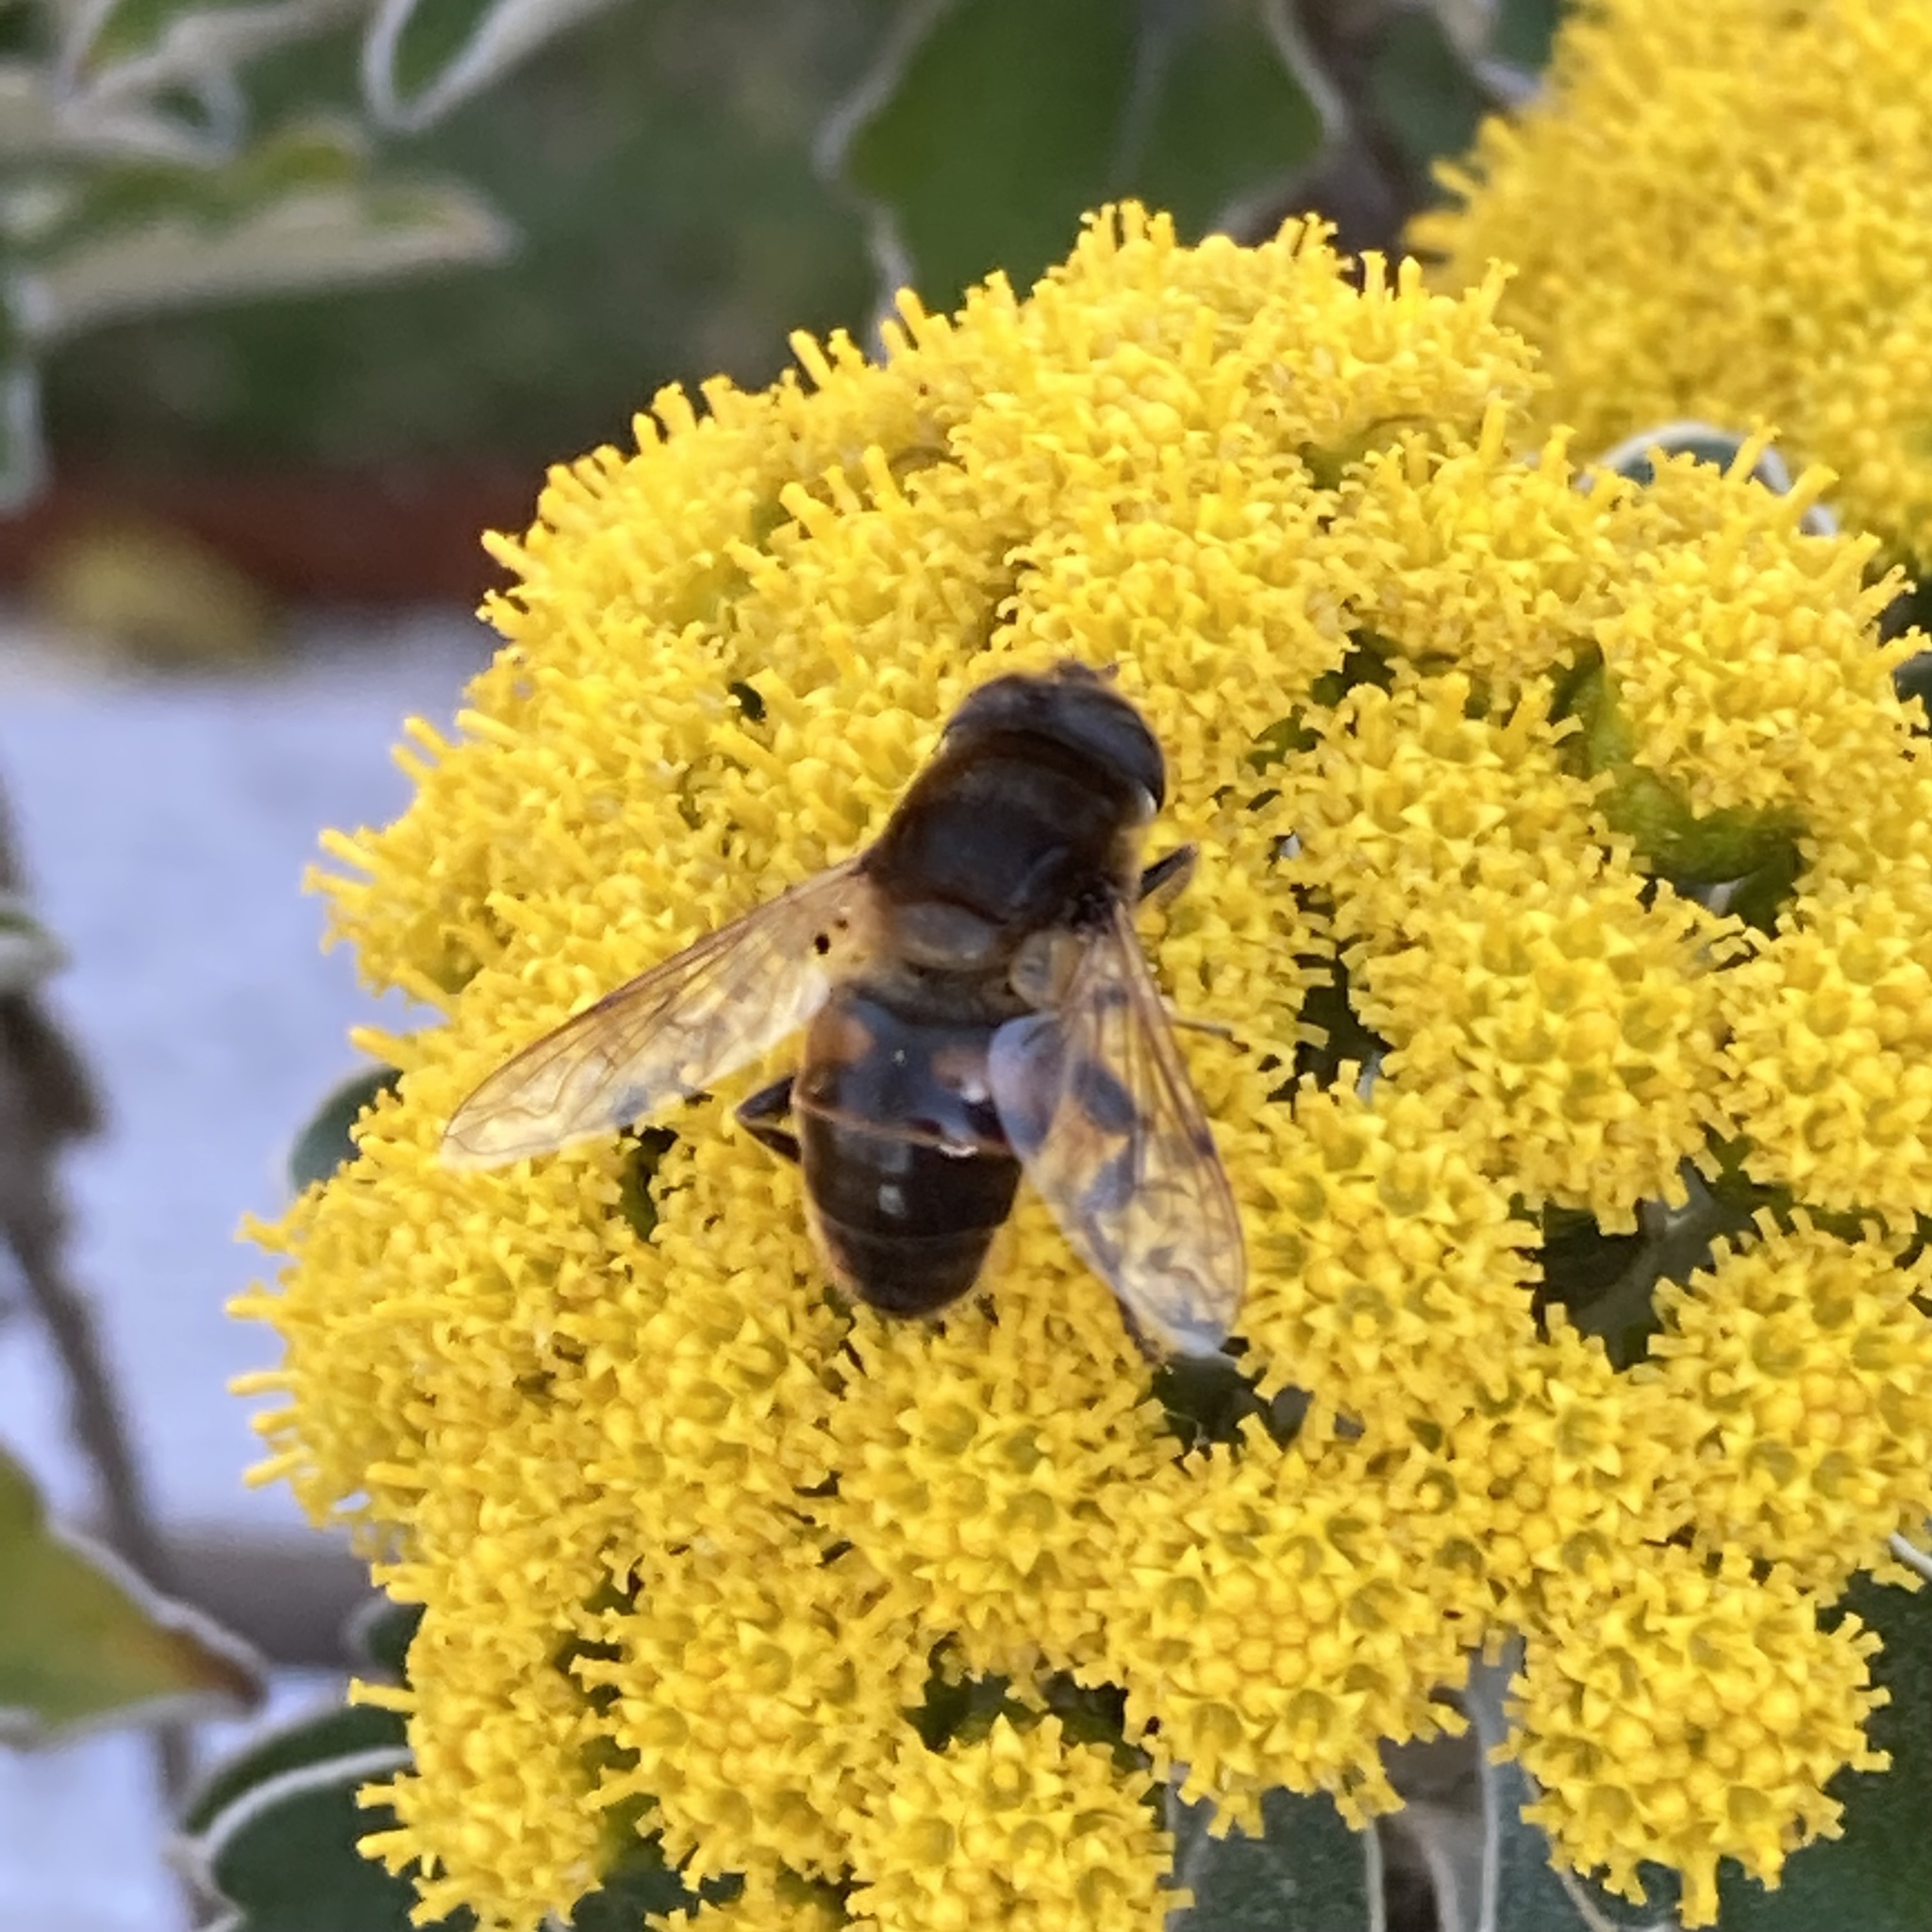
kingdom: Animalia
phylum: Arthropoda
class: Insecta
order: Diptera
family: Syrphidae
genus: Eristalis
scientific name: Eristalis tenax
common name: Drone fly
